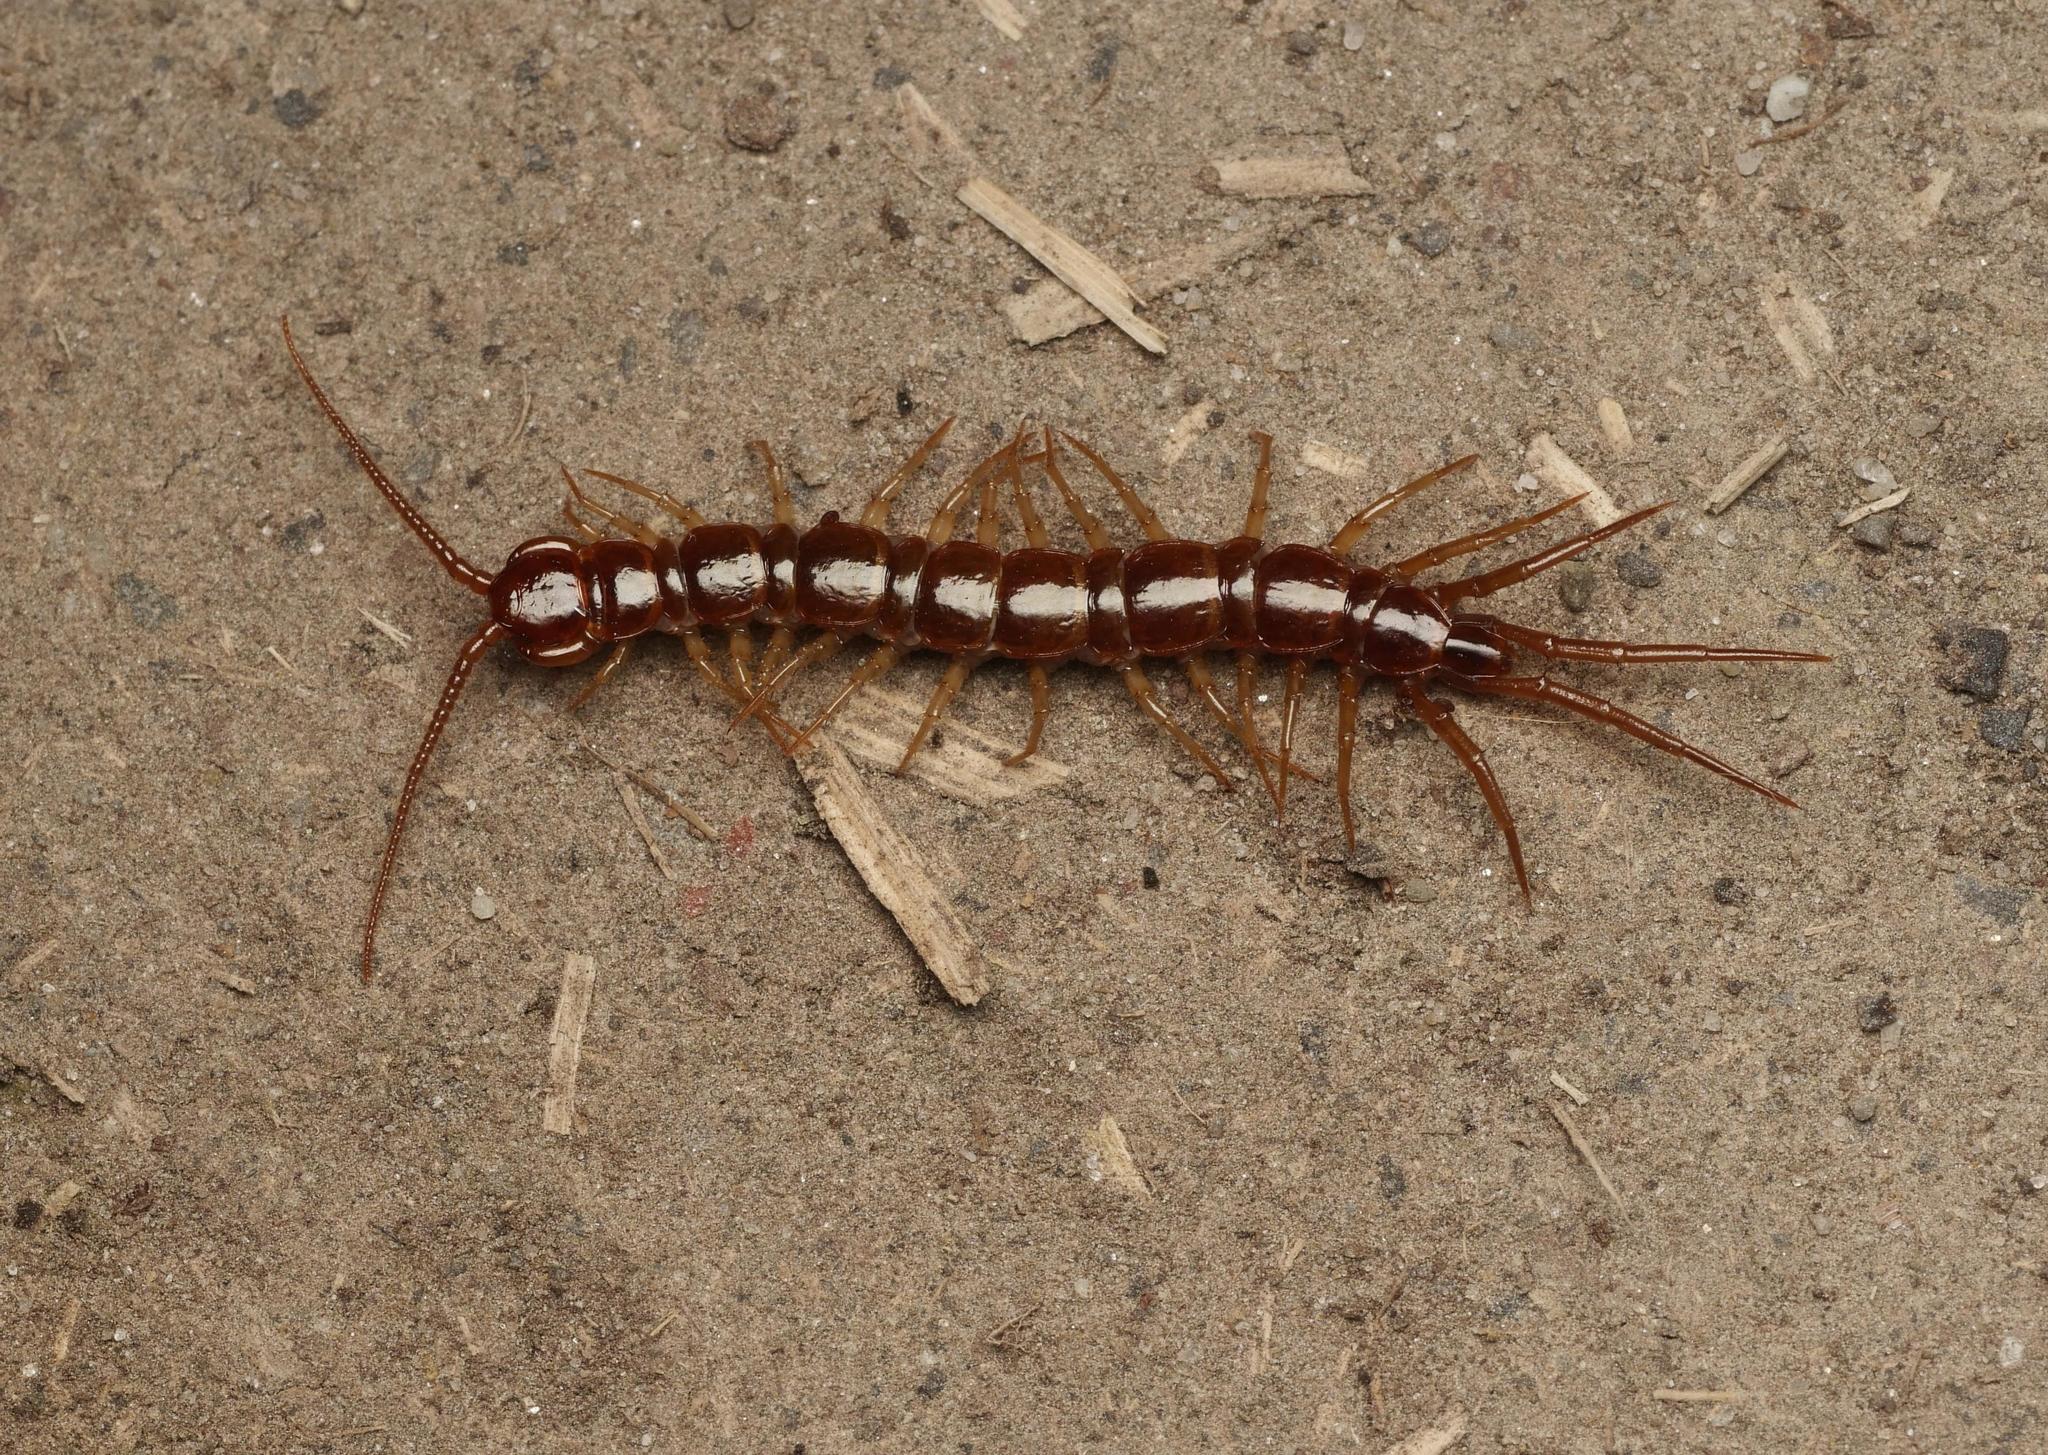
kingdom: Animalia
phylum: Arthropoda
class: Chilopoda
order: Lithobiomorpha
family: Lithobiidae
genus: Lithobius
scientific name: Lithobius forficatus
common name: Centipede
